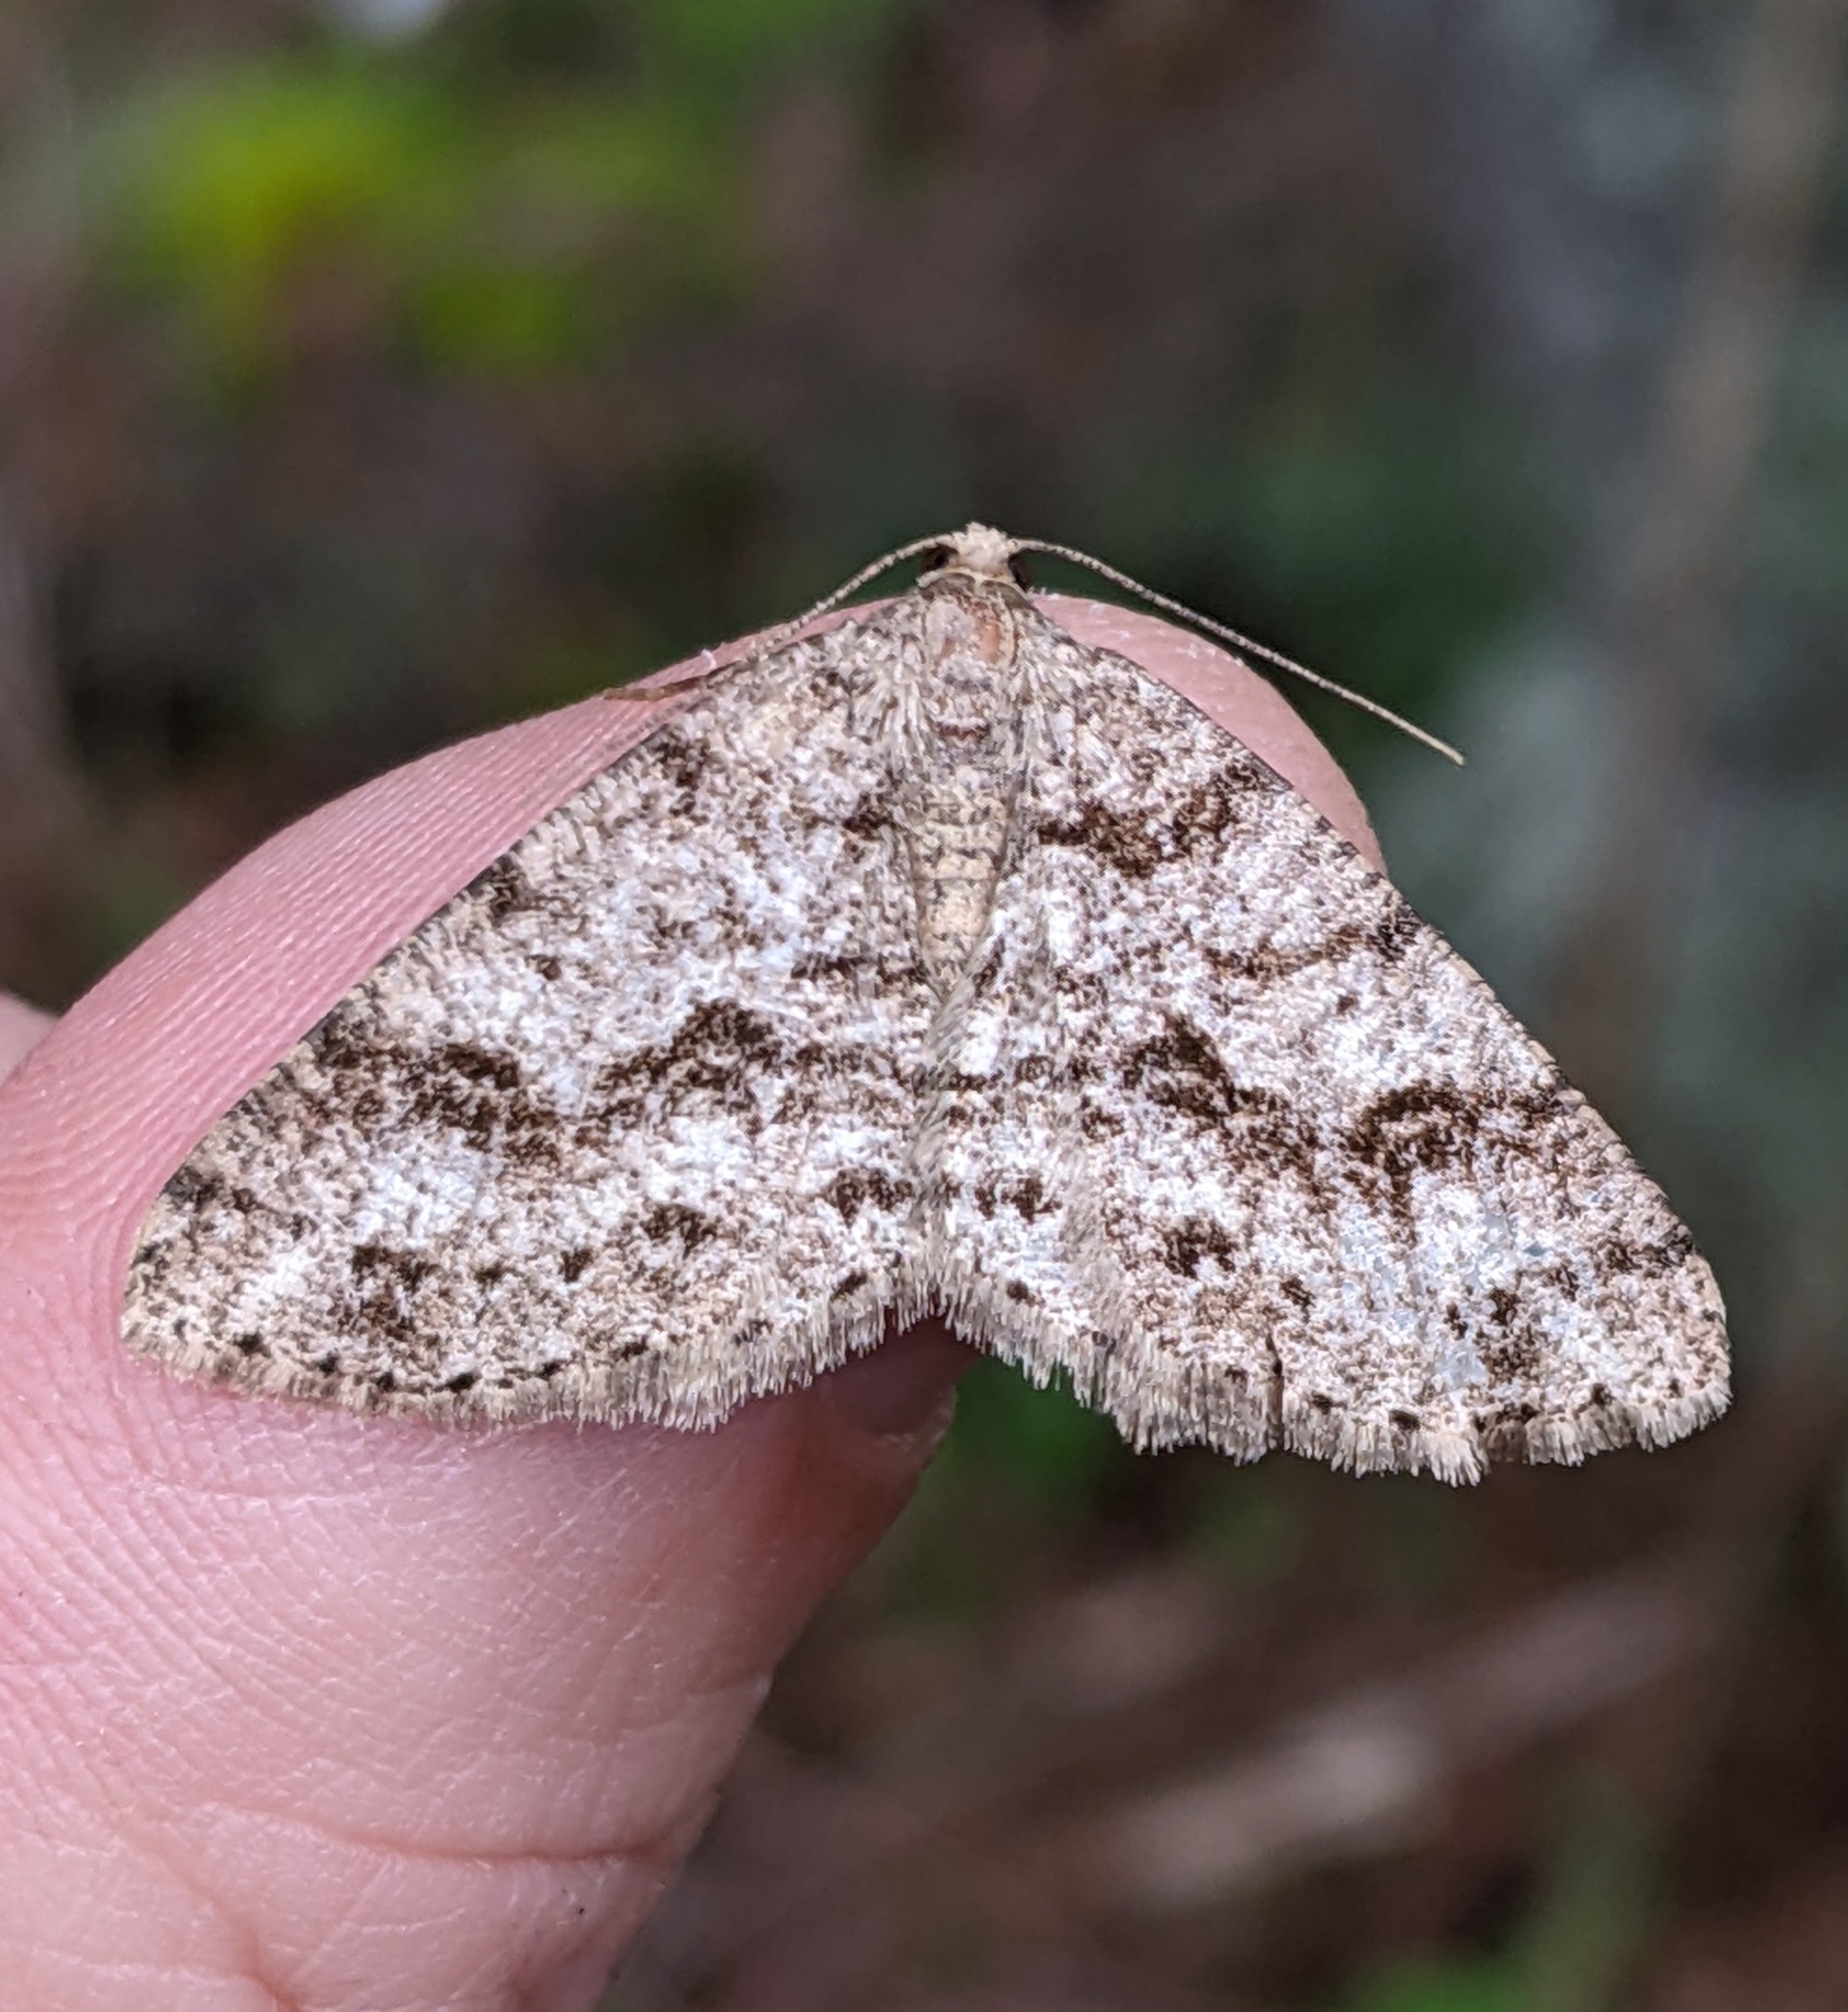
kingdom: Animalia
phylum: Arthropoda
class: Insecta
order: Lepidoptera
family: Geometridae
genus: Melanolophia
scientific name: Melanolophia imitata
